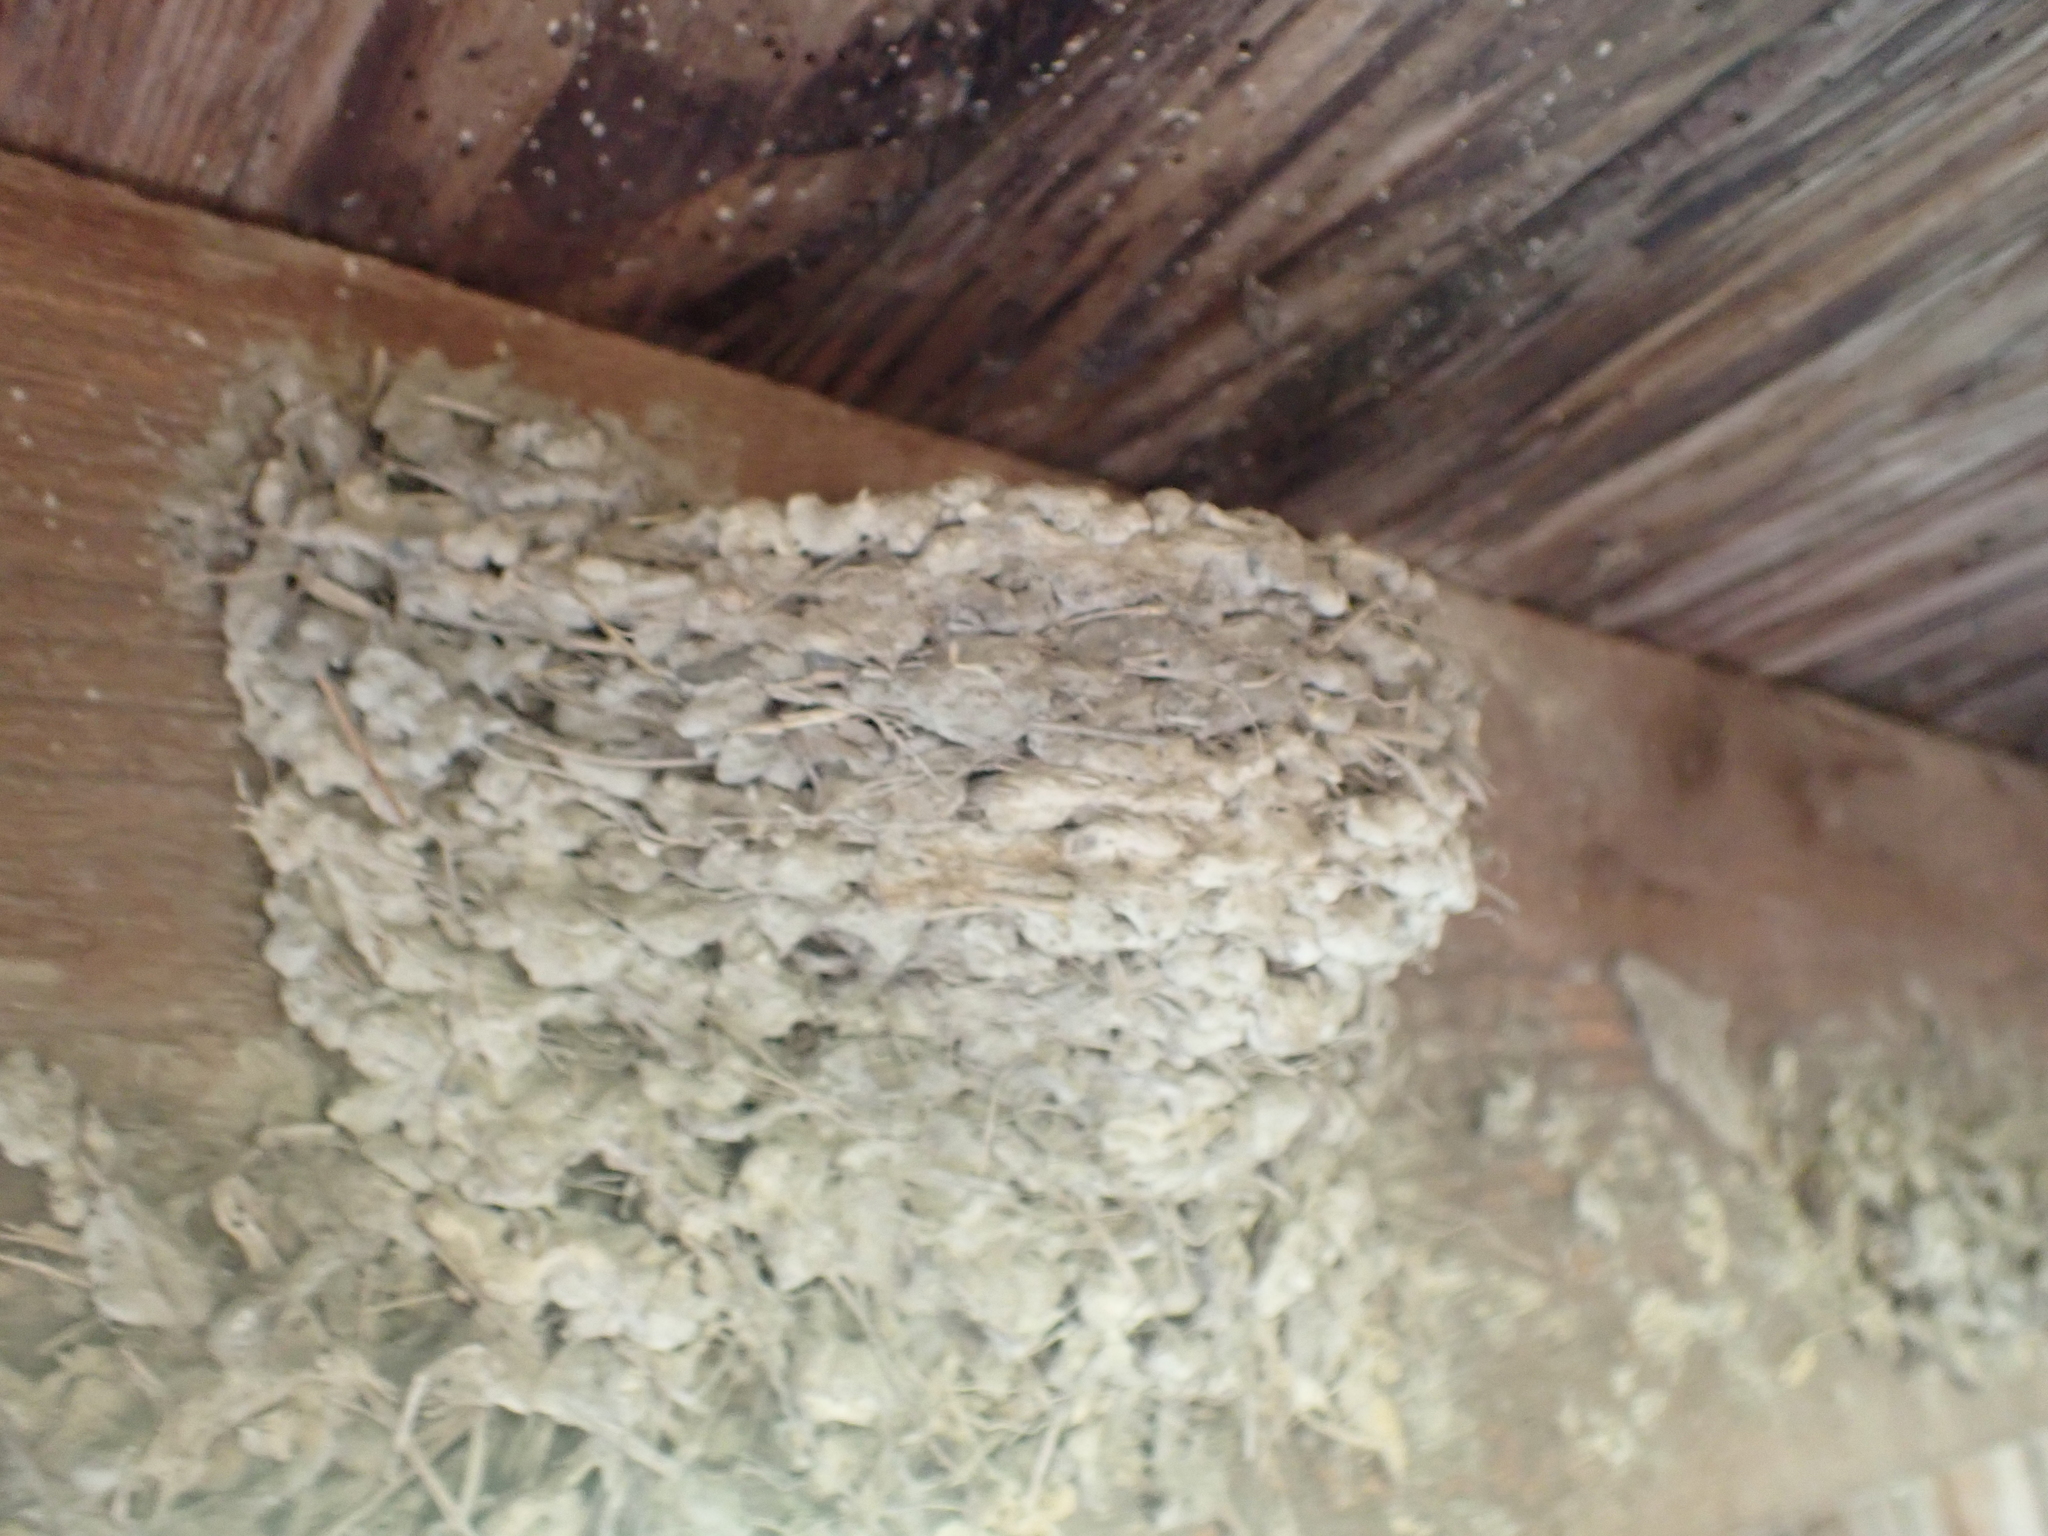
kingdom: Animalia
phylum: Chordata
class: Aves
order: Passeriformes
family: Hirundinidae
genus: Hirundo
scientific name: Hirundo rustica
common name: Barn swallow
